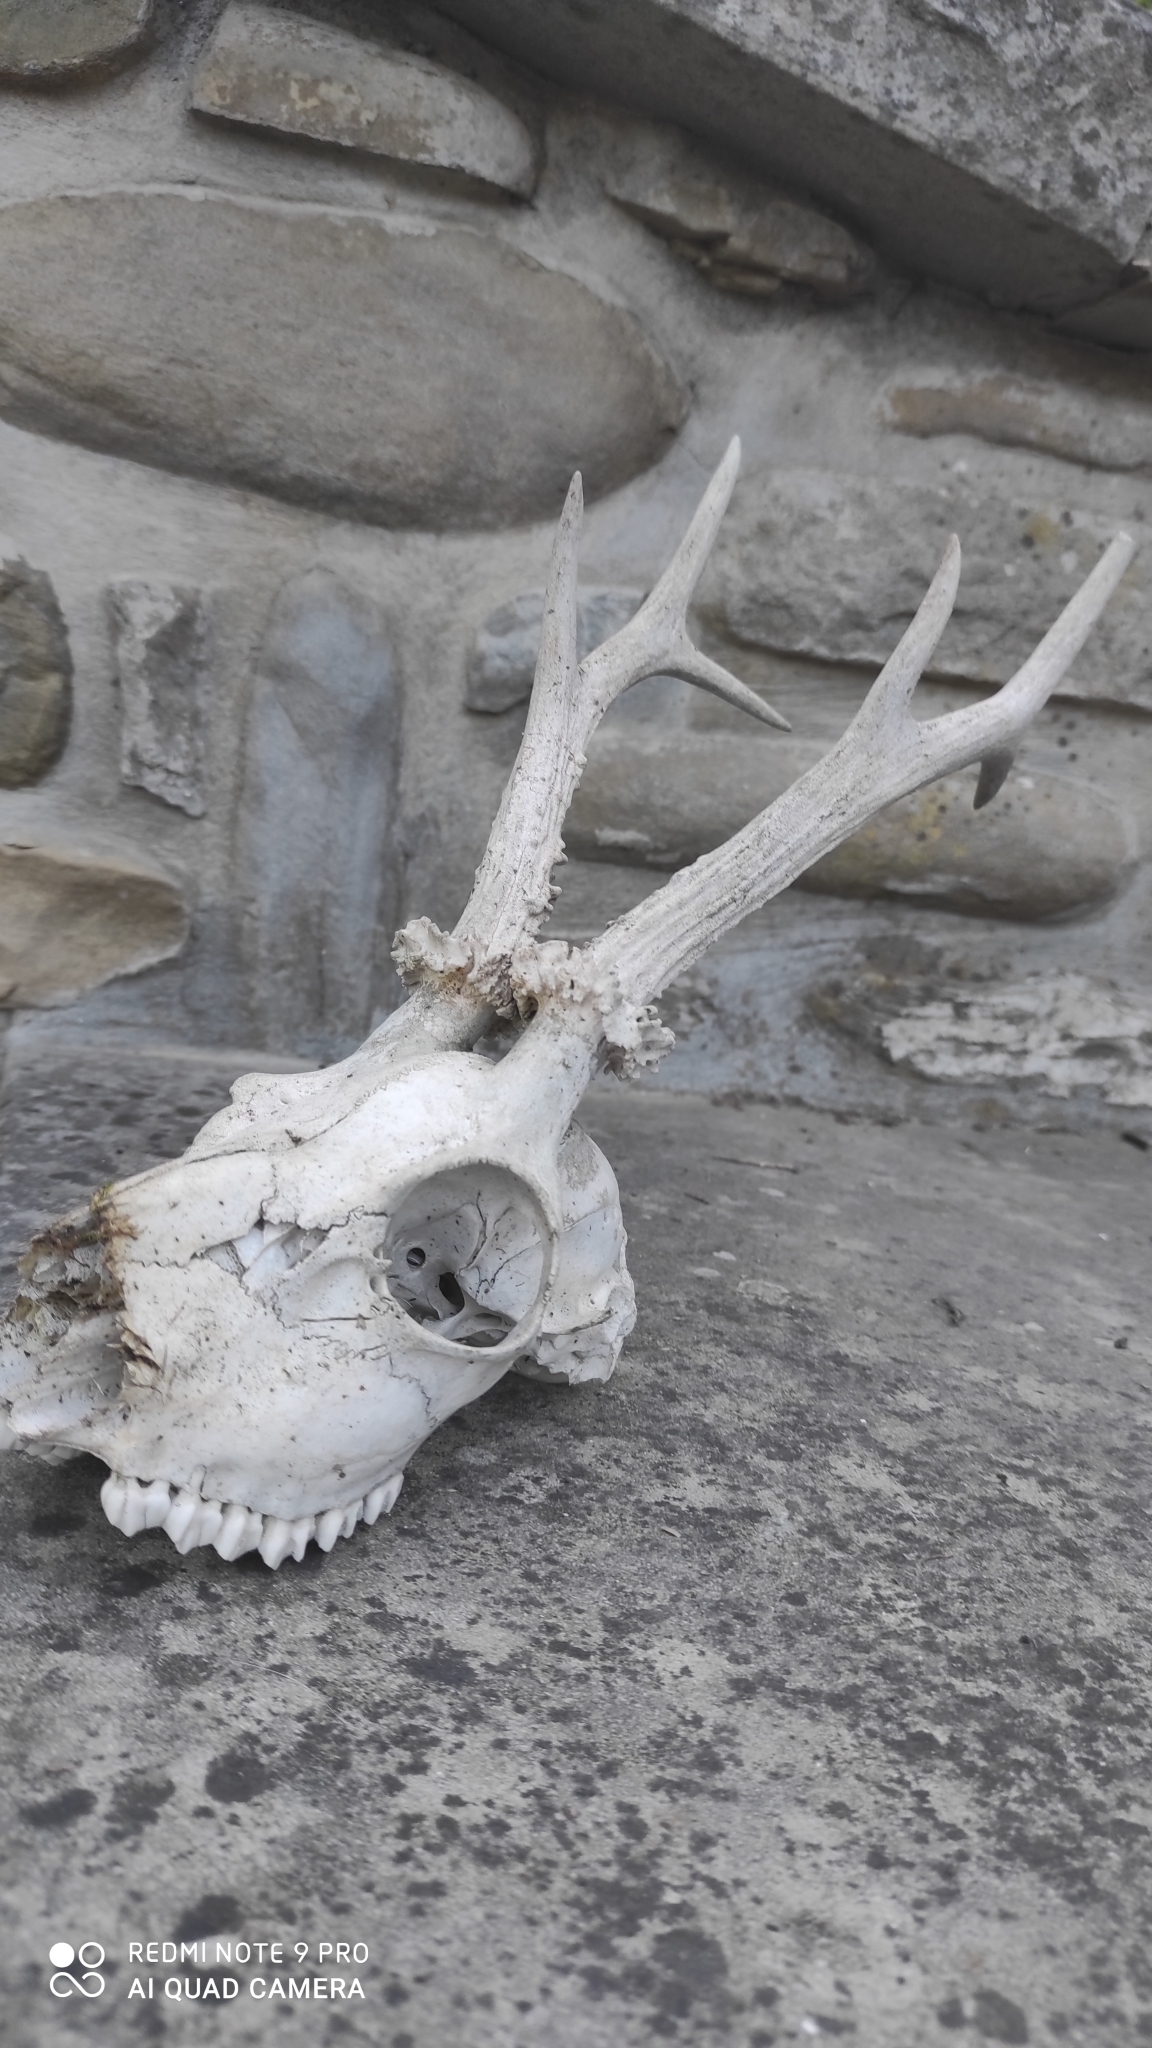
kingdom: Animalia
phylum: Chordata
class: Mammalia
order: Artiodactyla
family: Cervidae
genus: Capreolus
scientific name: Capreolus capreolus
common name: Western roe deer
